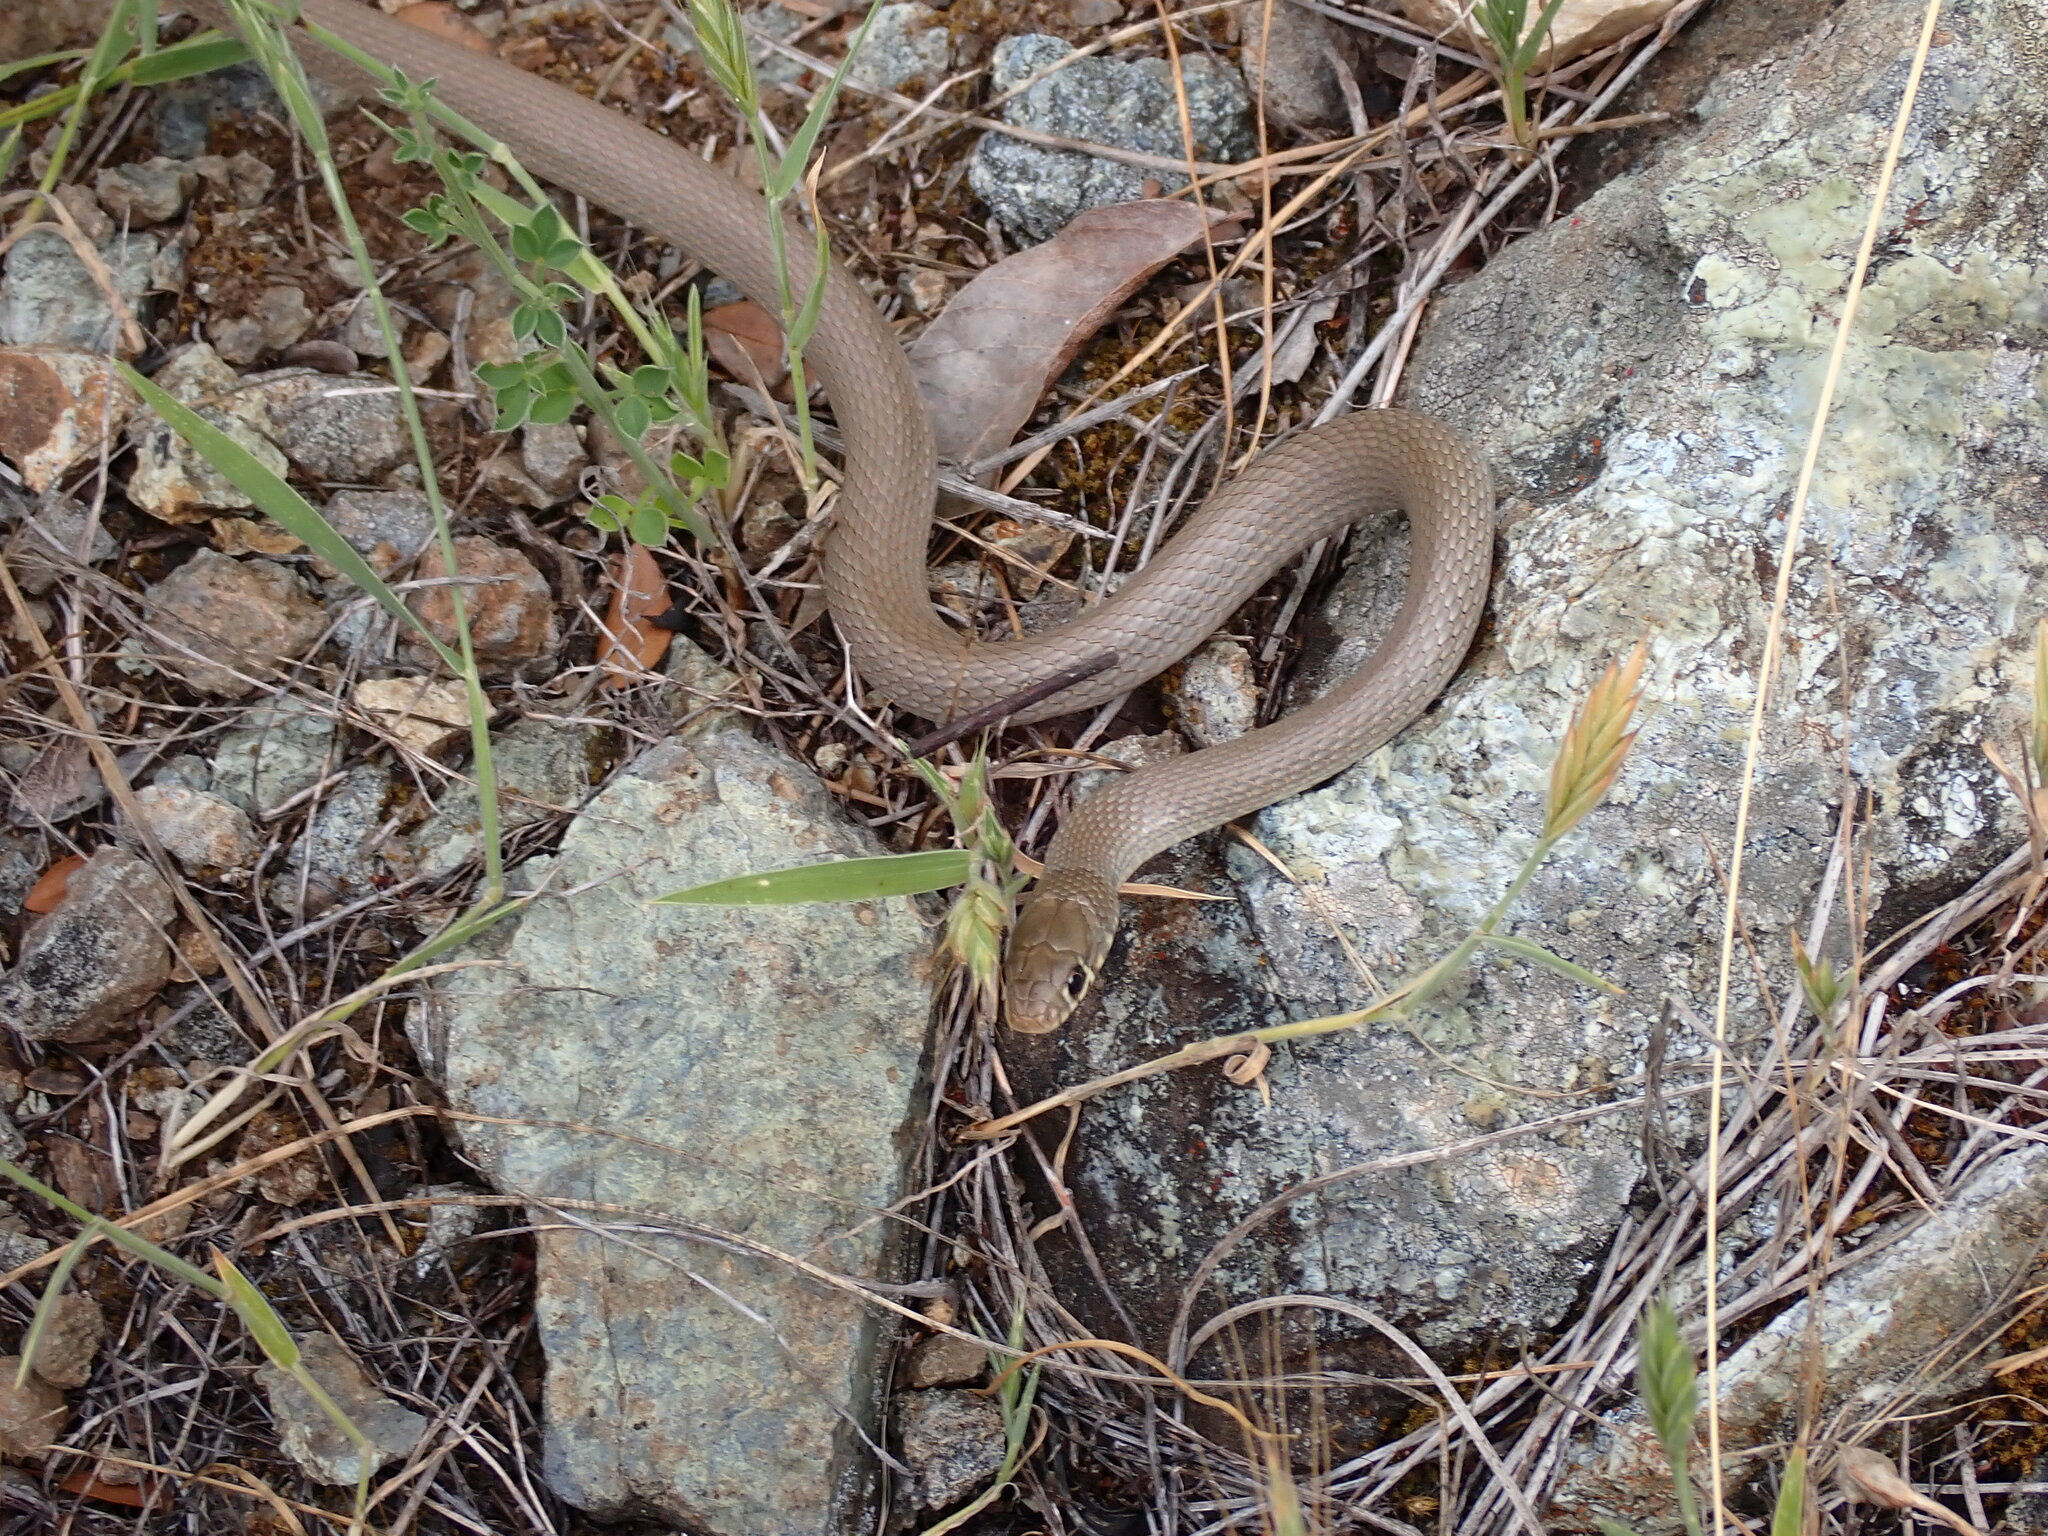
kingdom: Animalia
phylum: Chordata
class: Squamata
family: Colubridae
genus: Eirenis
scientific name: Eirenis modestus
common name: Ring-headed dwarf snake
